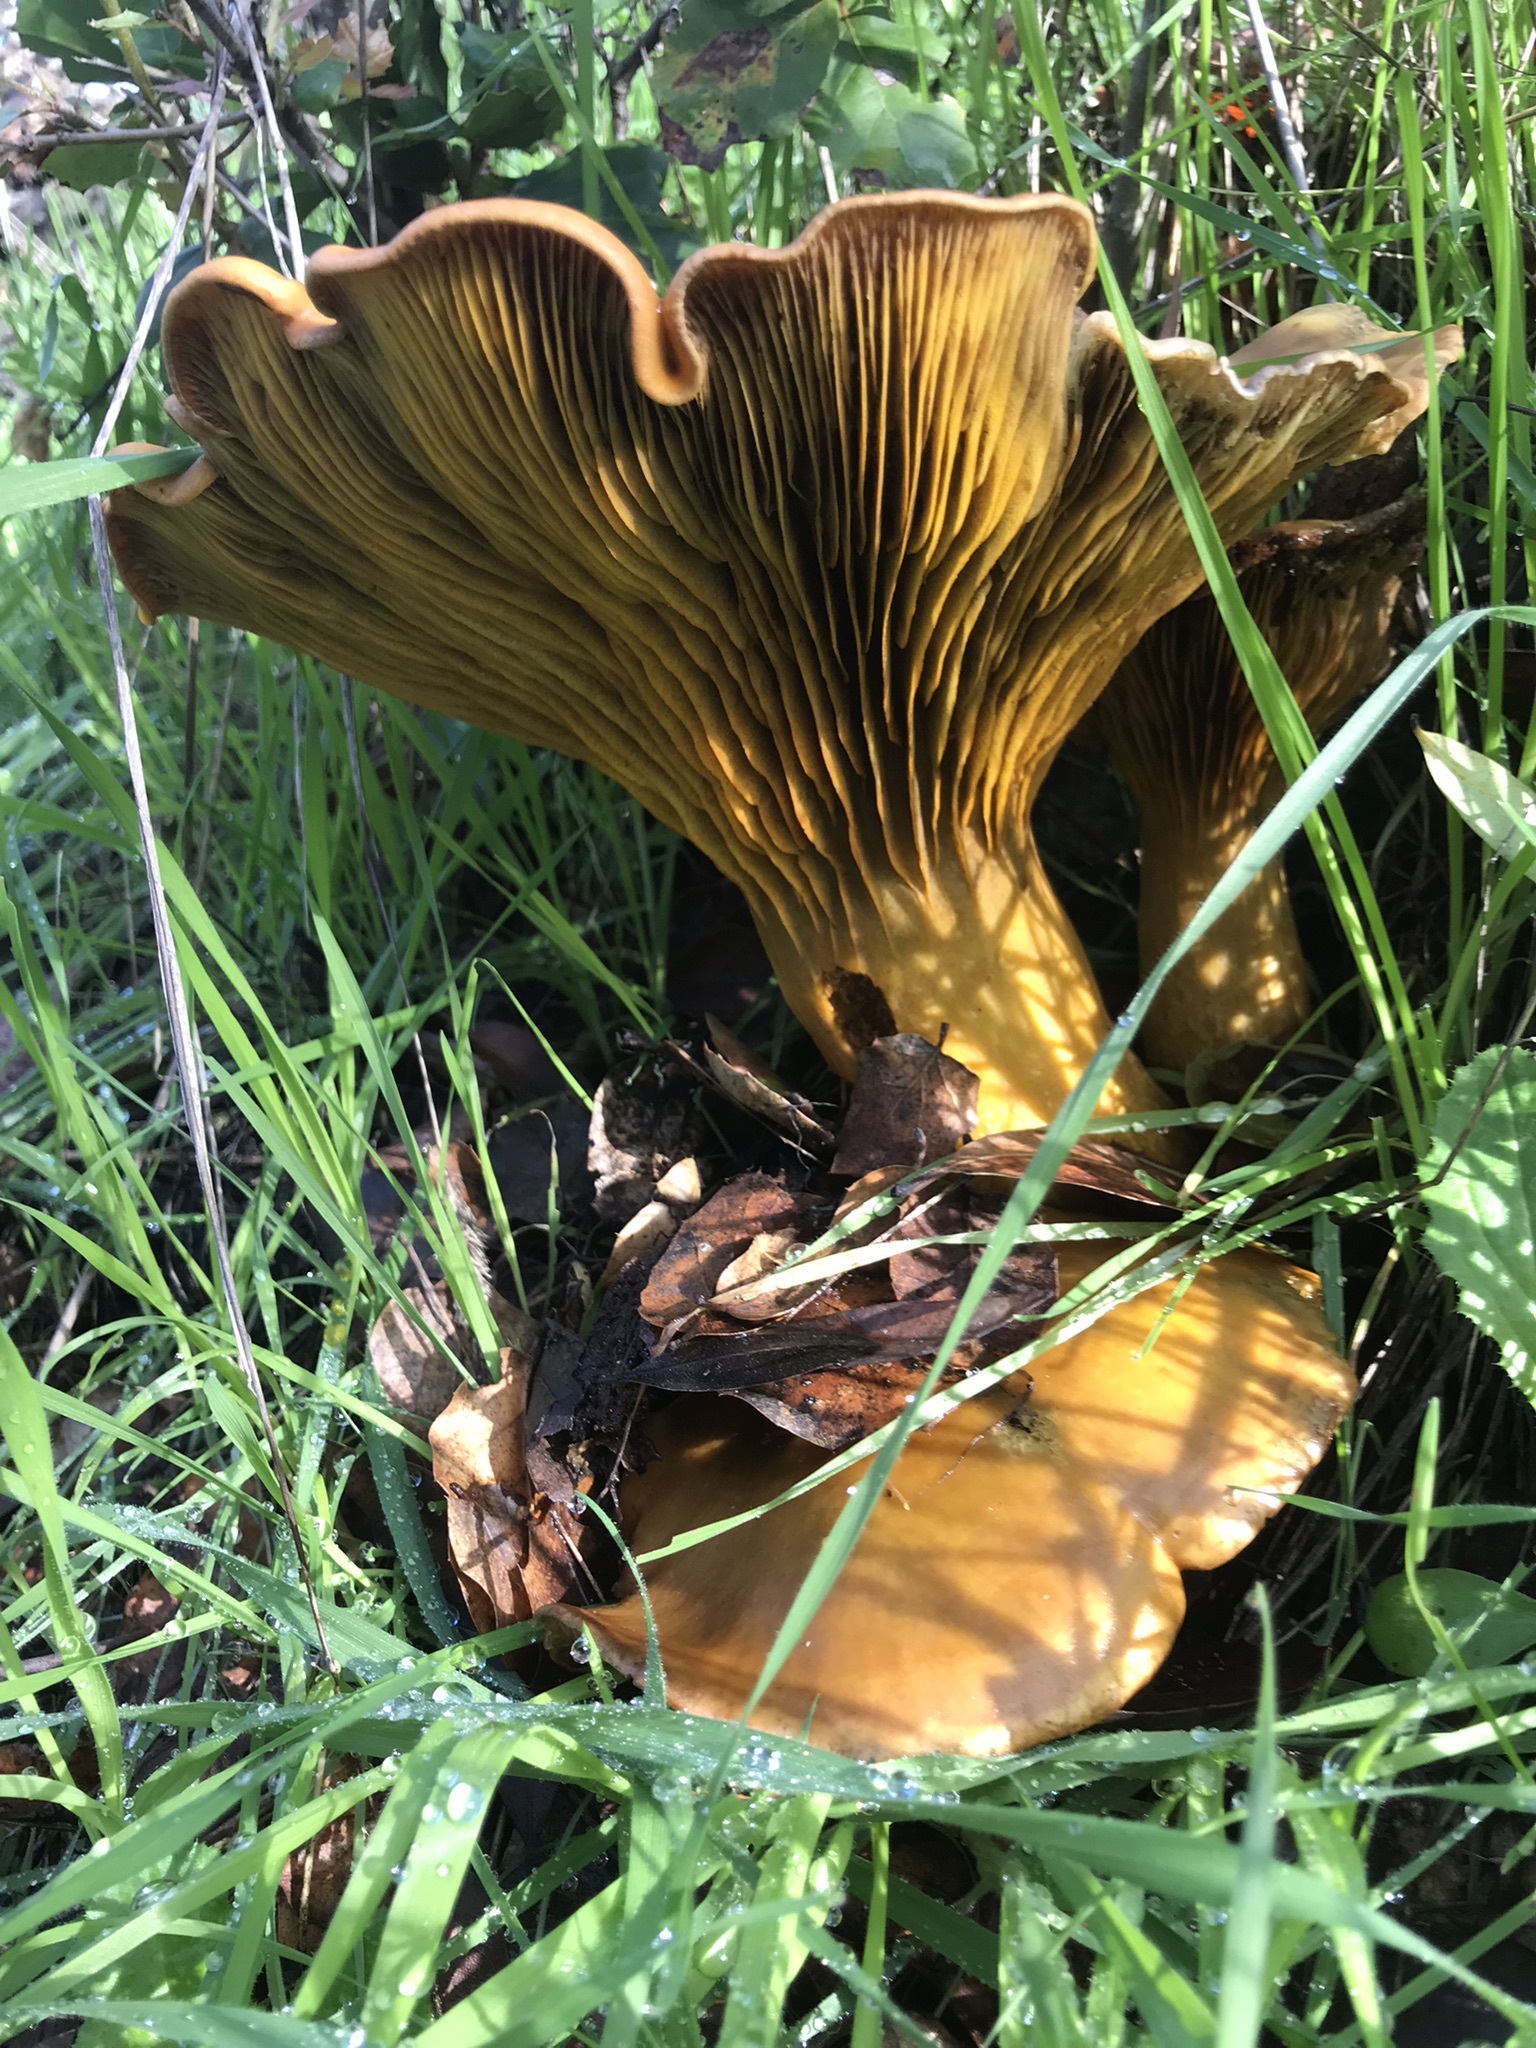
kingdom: Fungi
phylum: Basidiomycota
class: Agaricomycetes
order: Agaricales
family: Omphalotaceae
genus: Omphalotus
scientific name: Omphalotus olivascens
